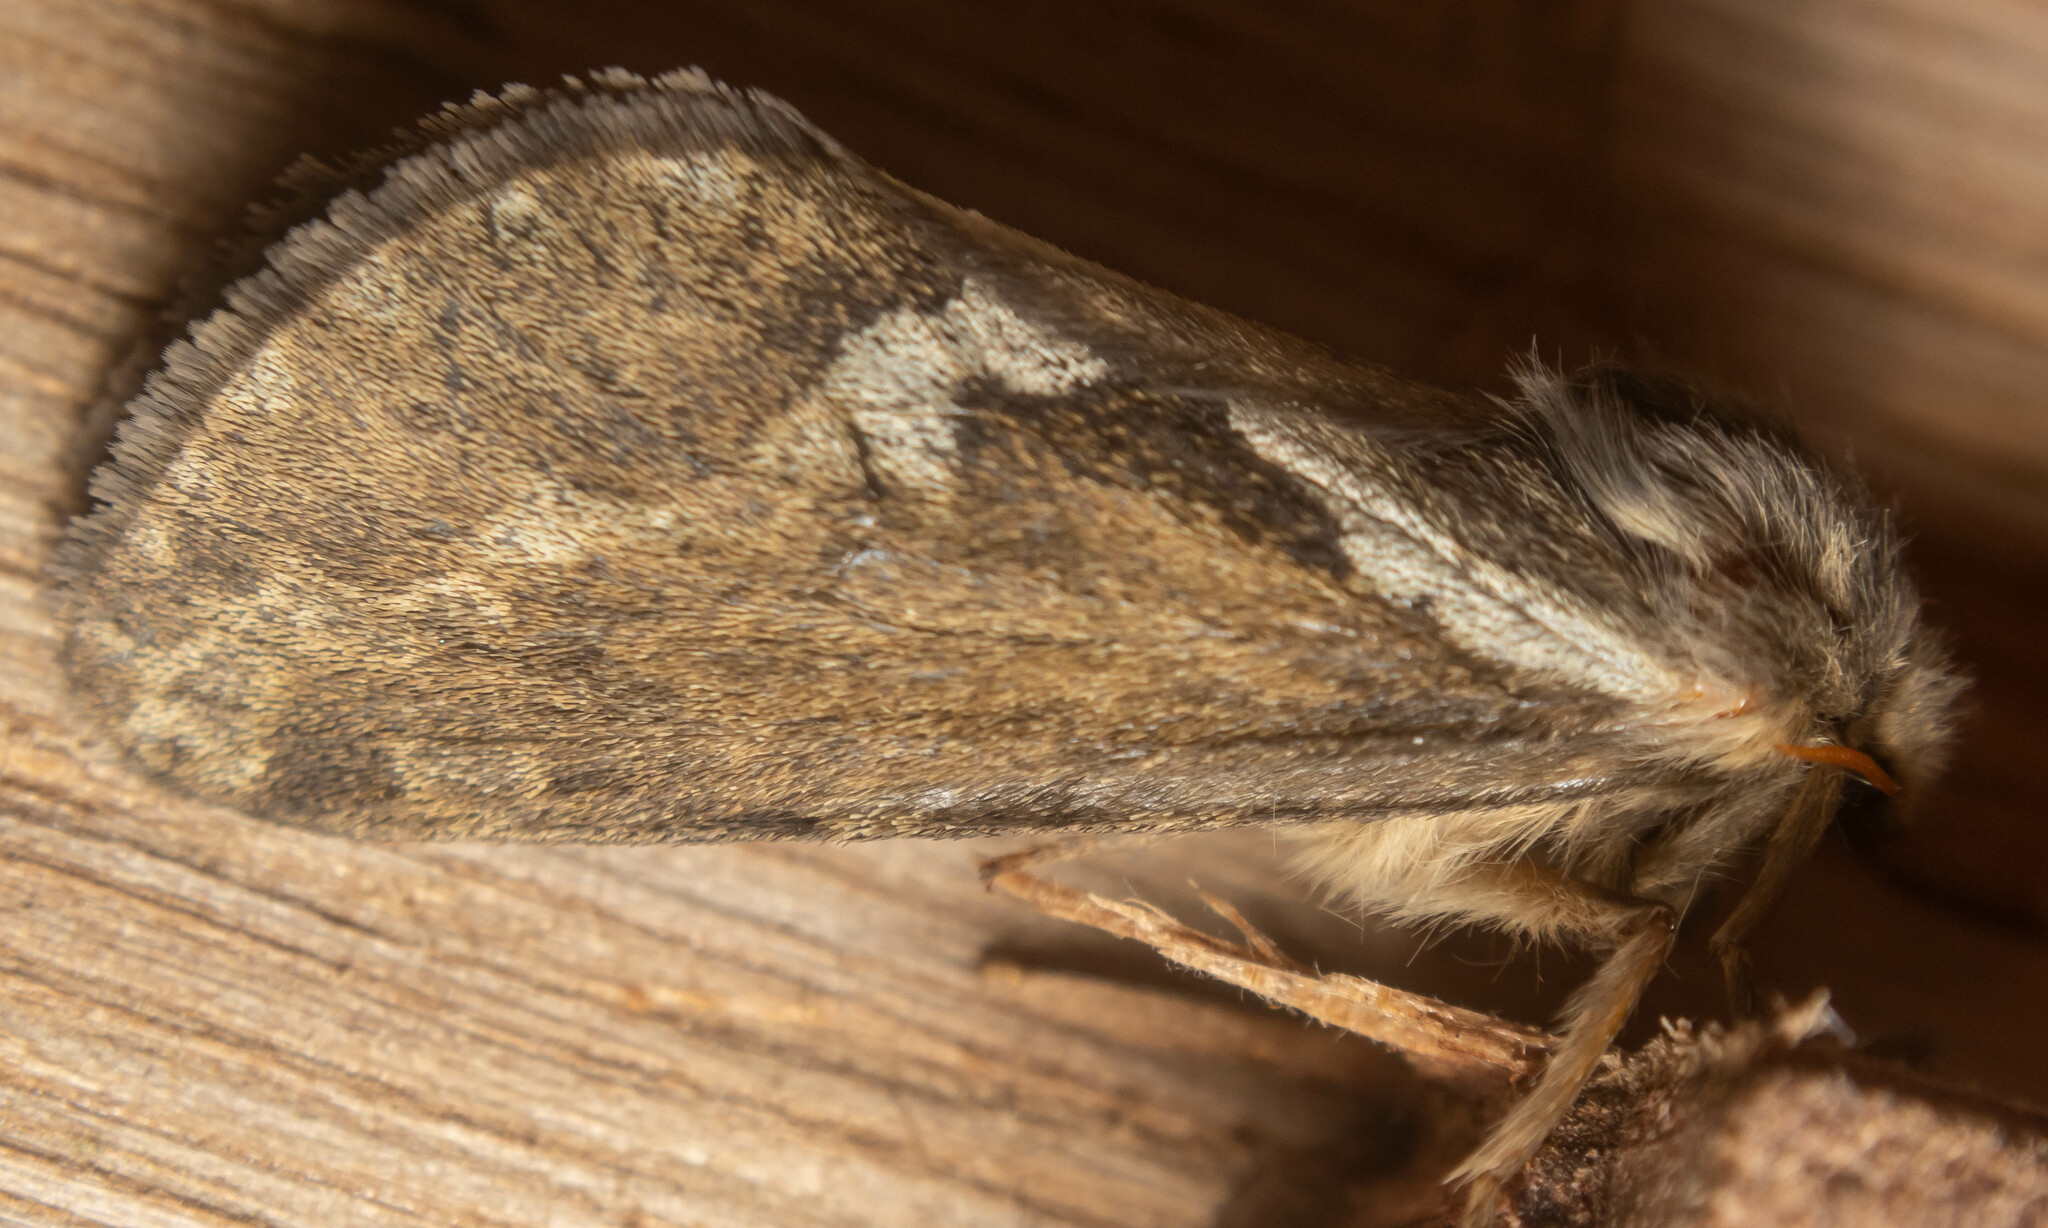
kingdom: Animalia
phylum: Arthropoda
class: Insecta
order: Lepidoptera
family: Hepialidae
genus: Korscheltellus
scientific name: Korscheltellus lupulina
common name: Common swift
